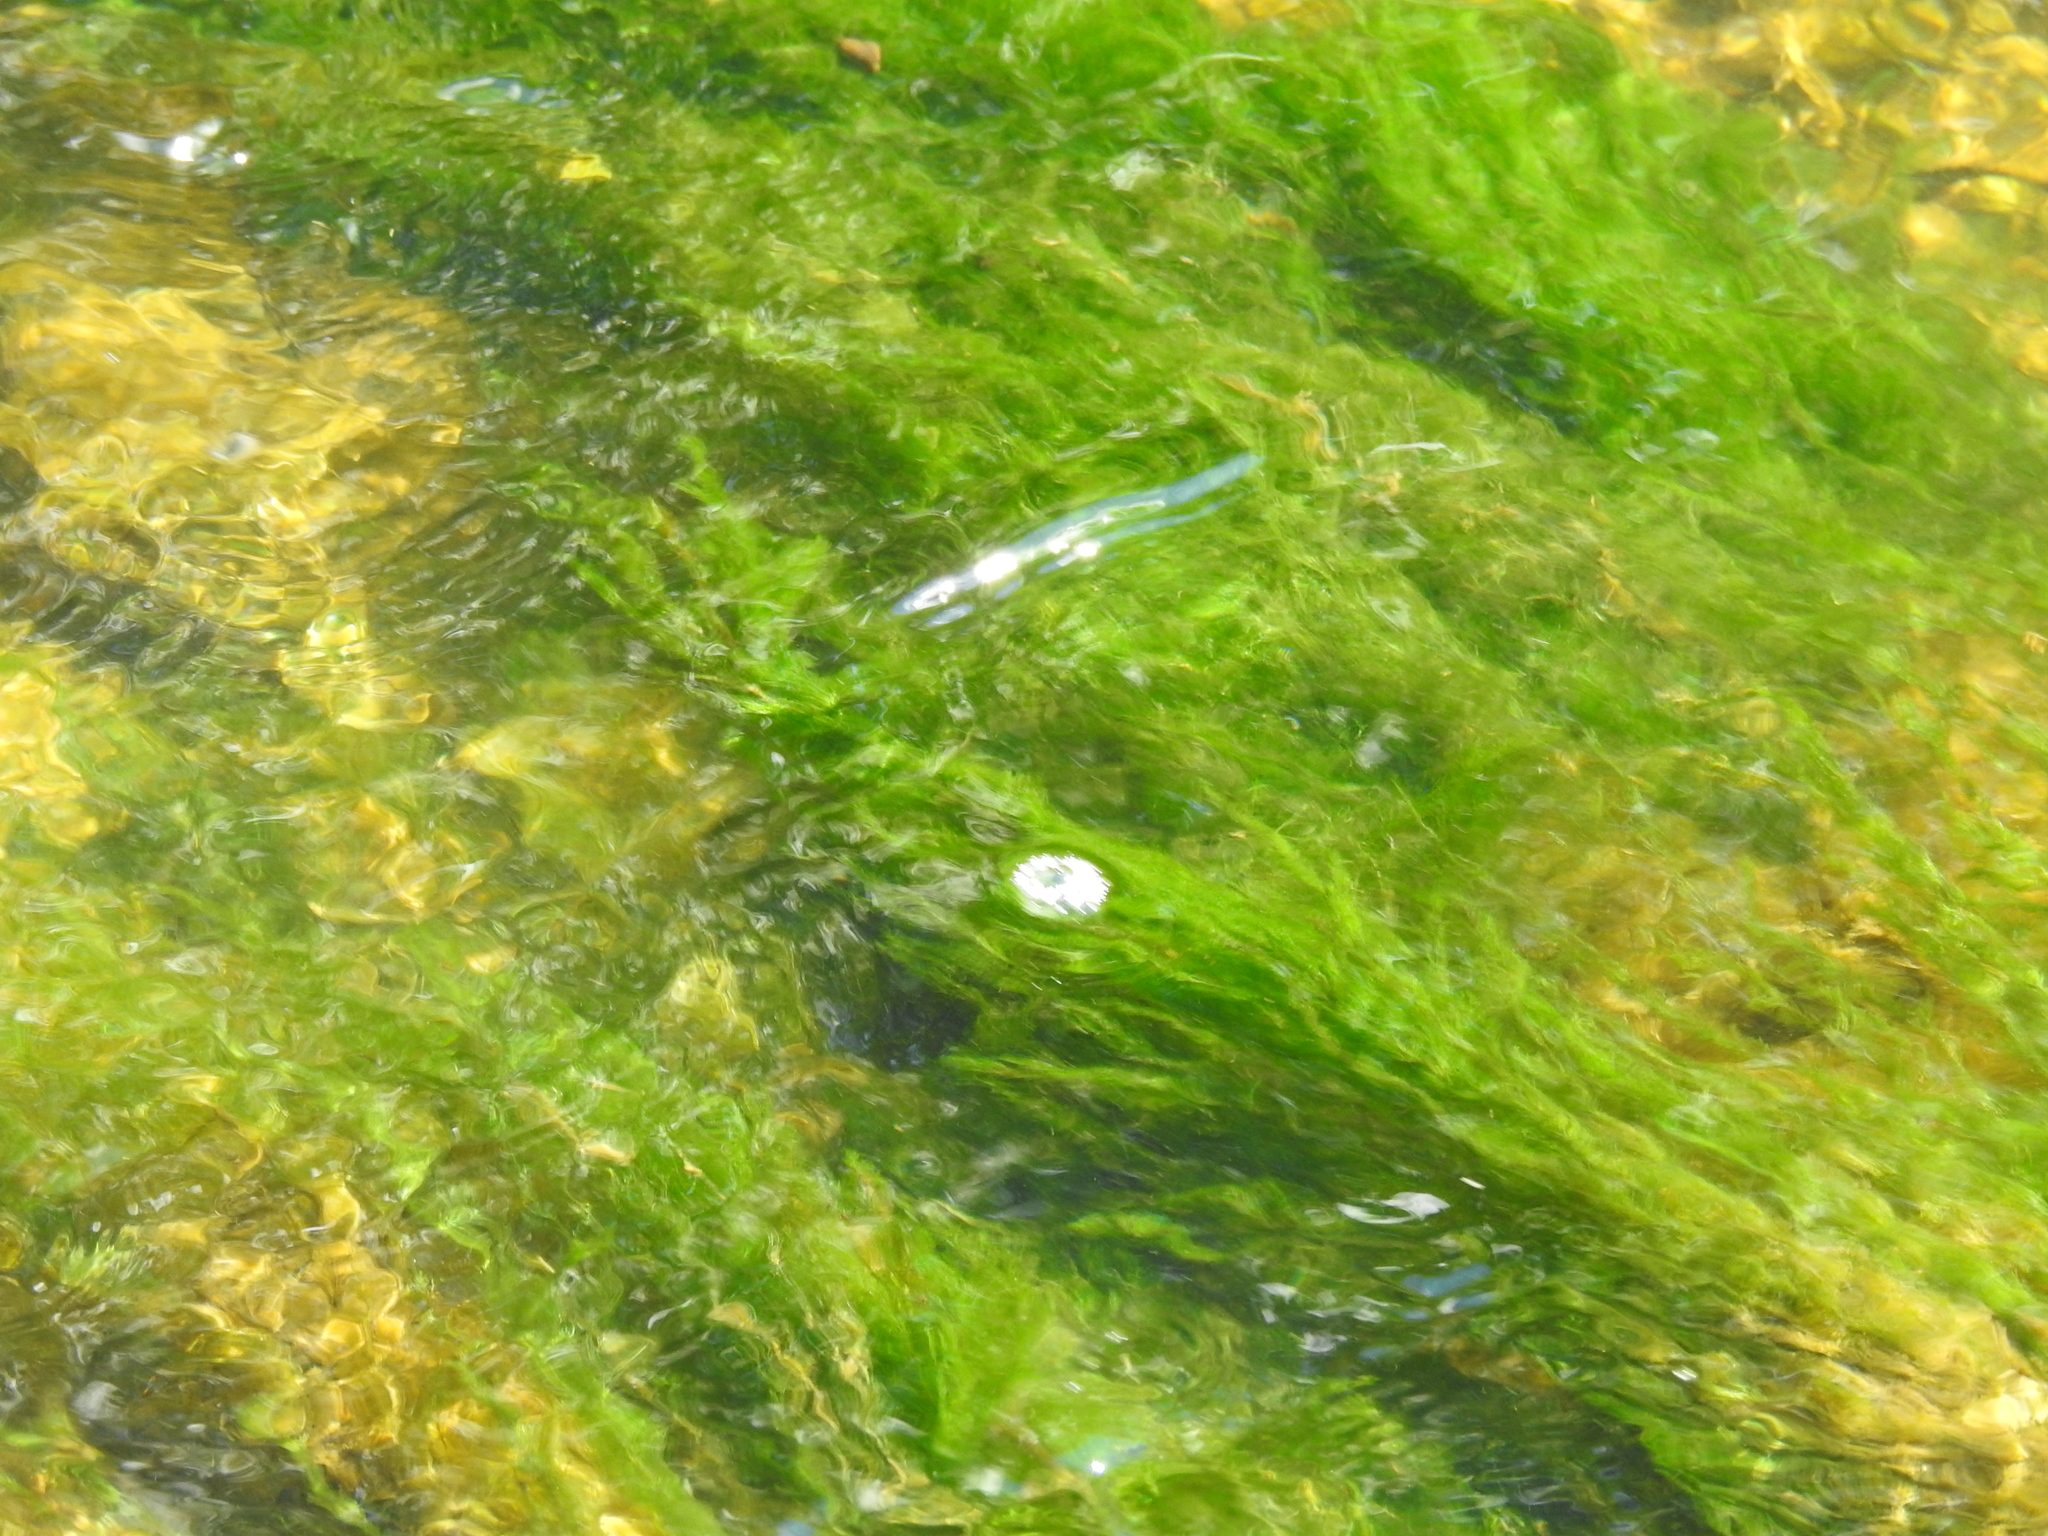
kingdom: Plantae
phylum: Chlorophyta
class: Ulvophyceae
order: Cladophorales
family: Cladophoraceae
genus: Cladophora
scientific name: Cladophora
